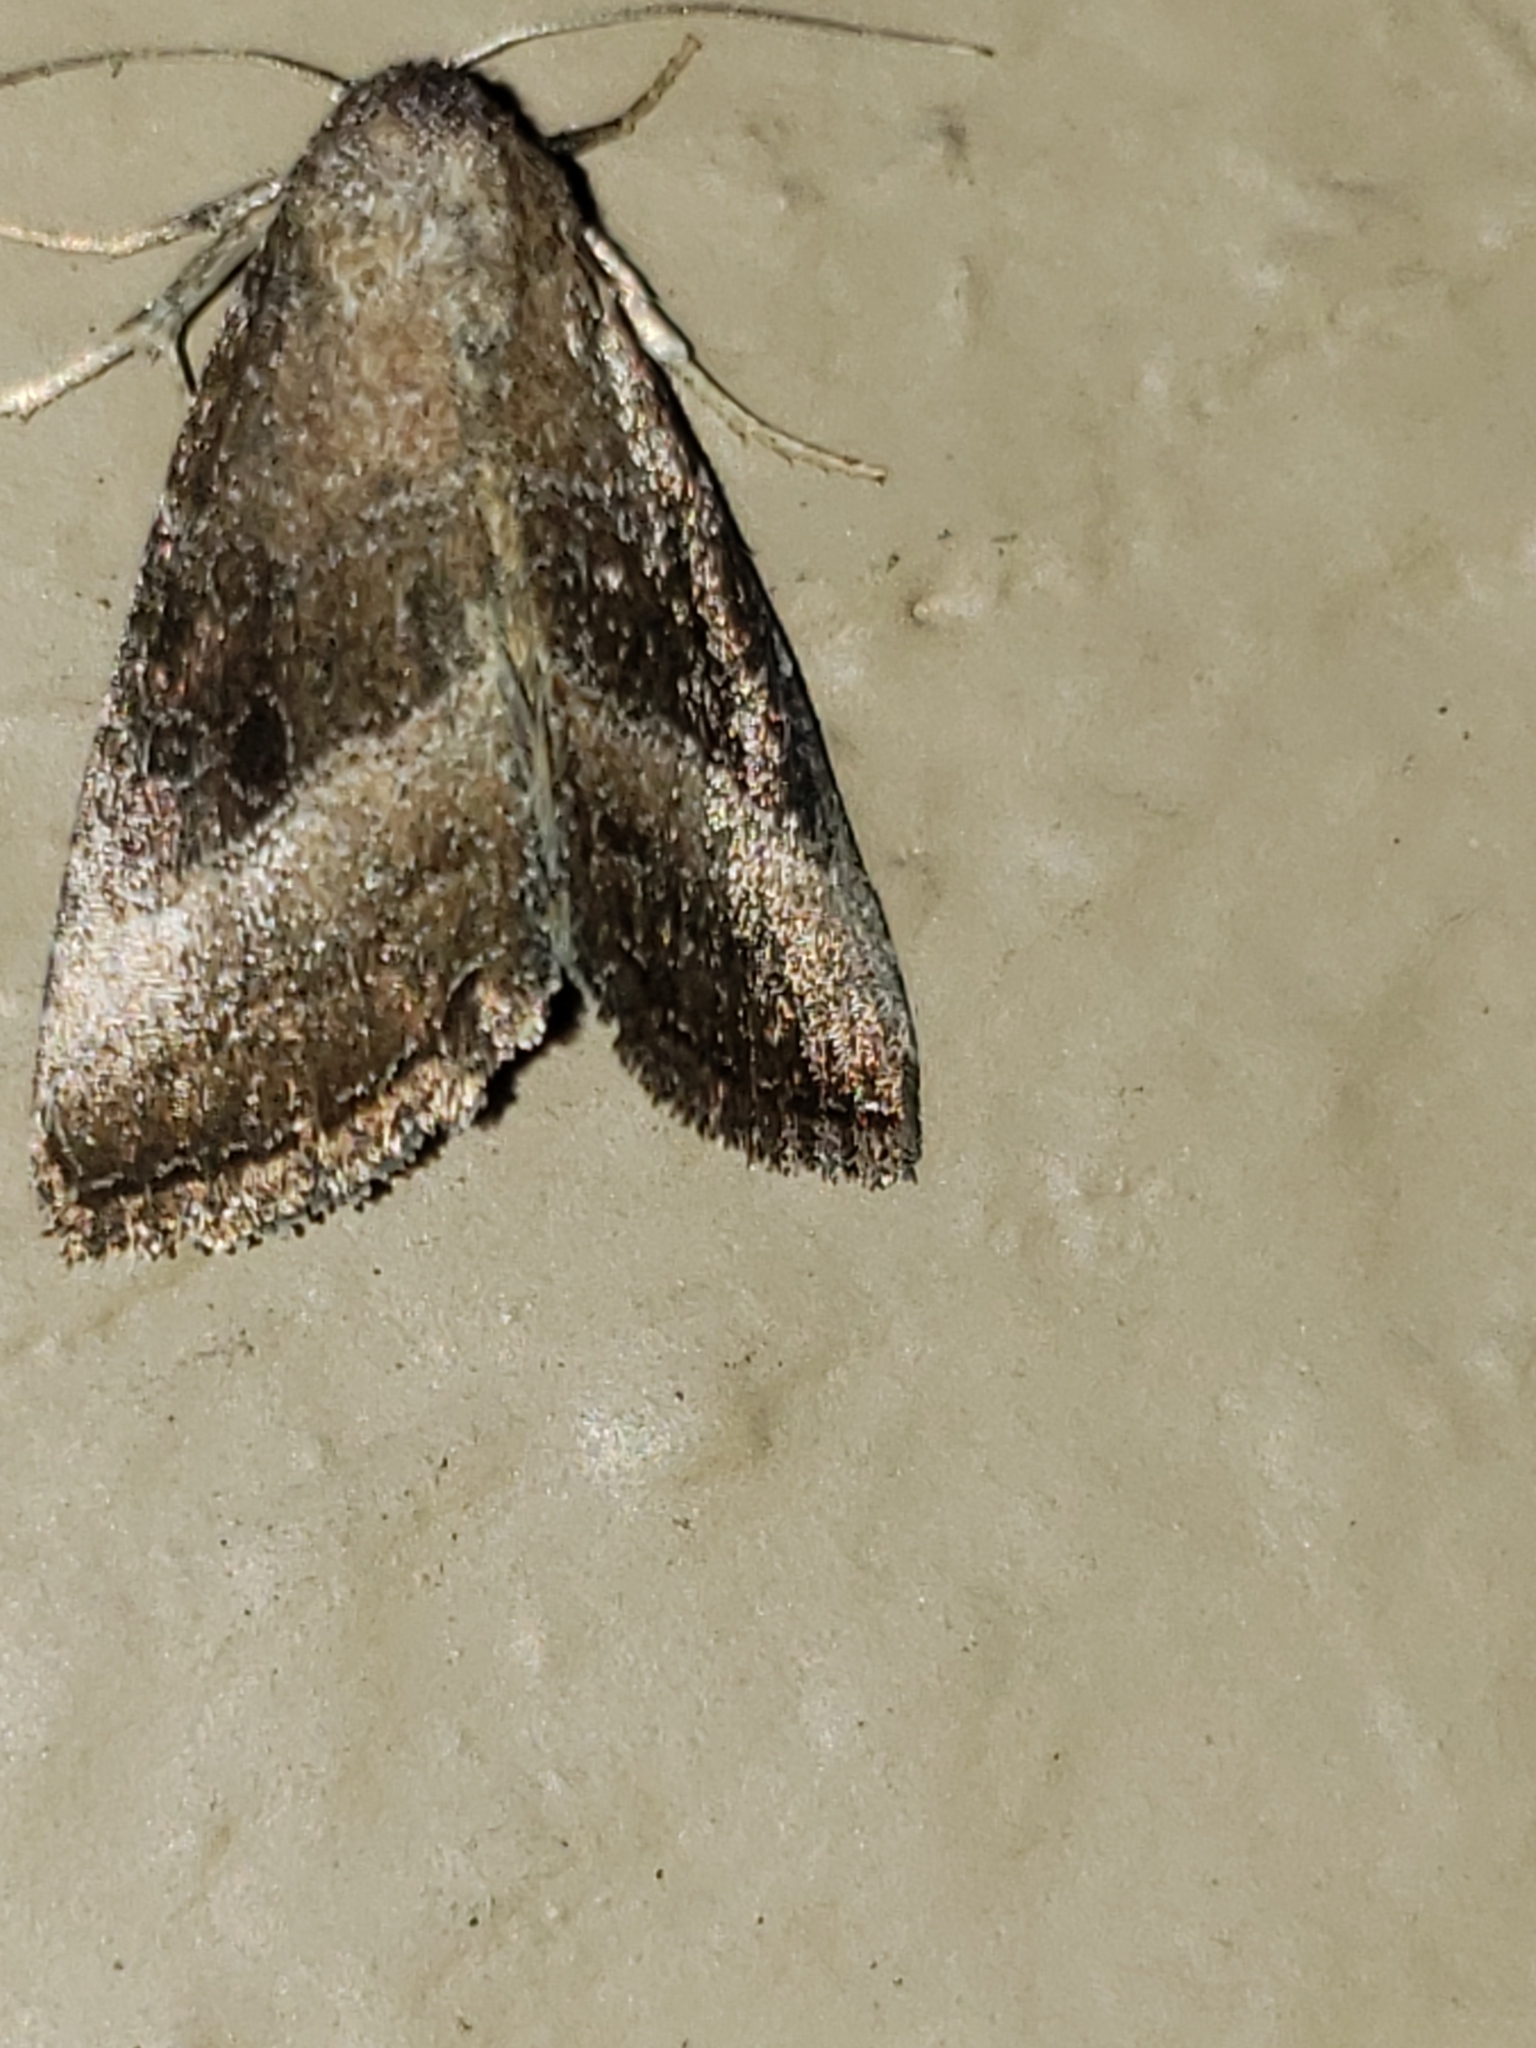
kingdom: Animalia
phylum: Arthropoda
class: Insecta
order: Lepidoptera
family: Noctuidae
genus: Ogdoconta
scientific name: Ogdoconta cinereola
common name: Common pinkband
